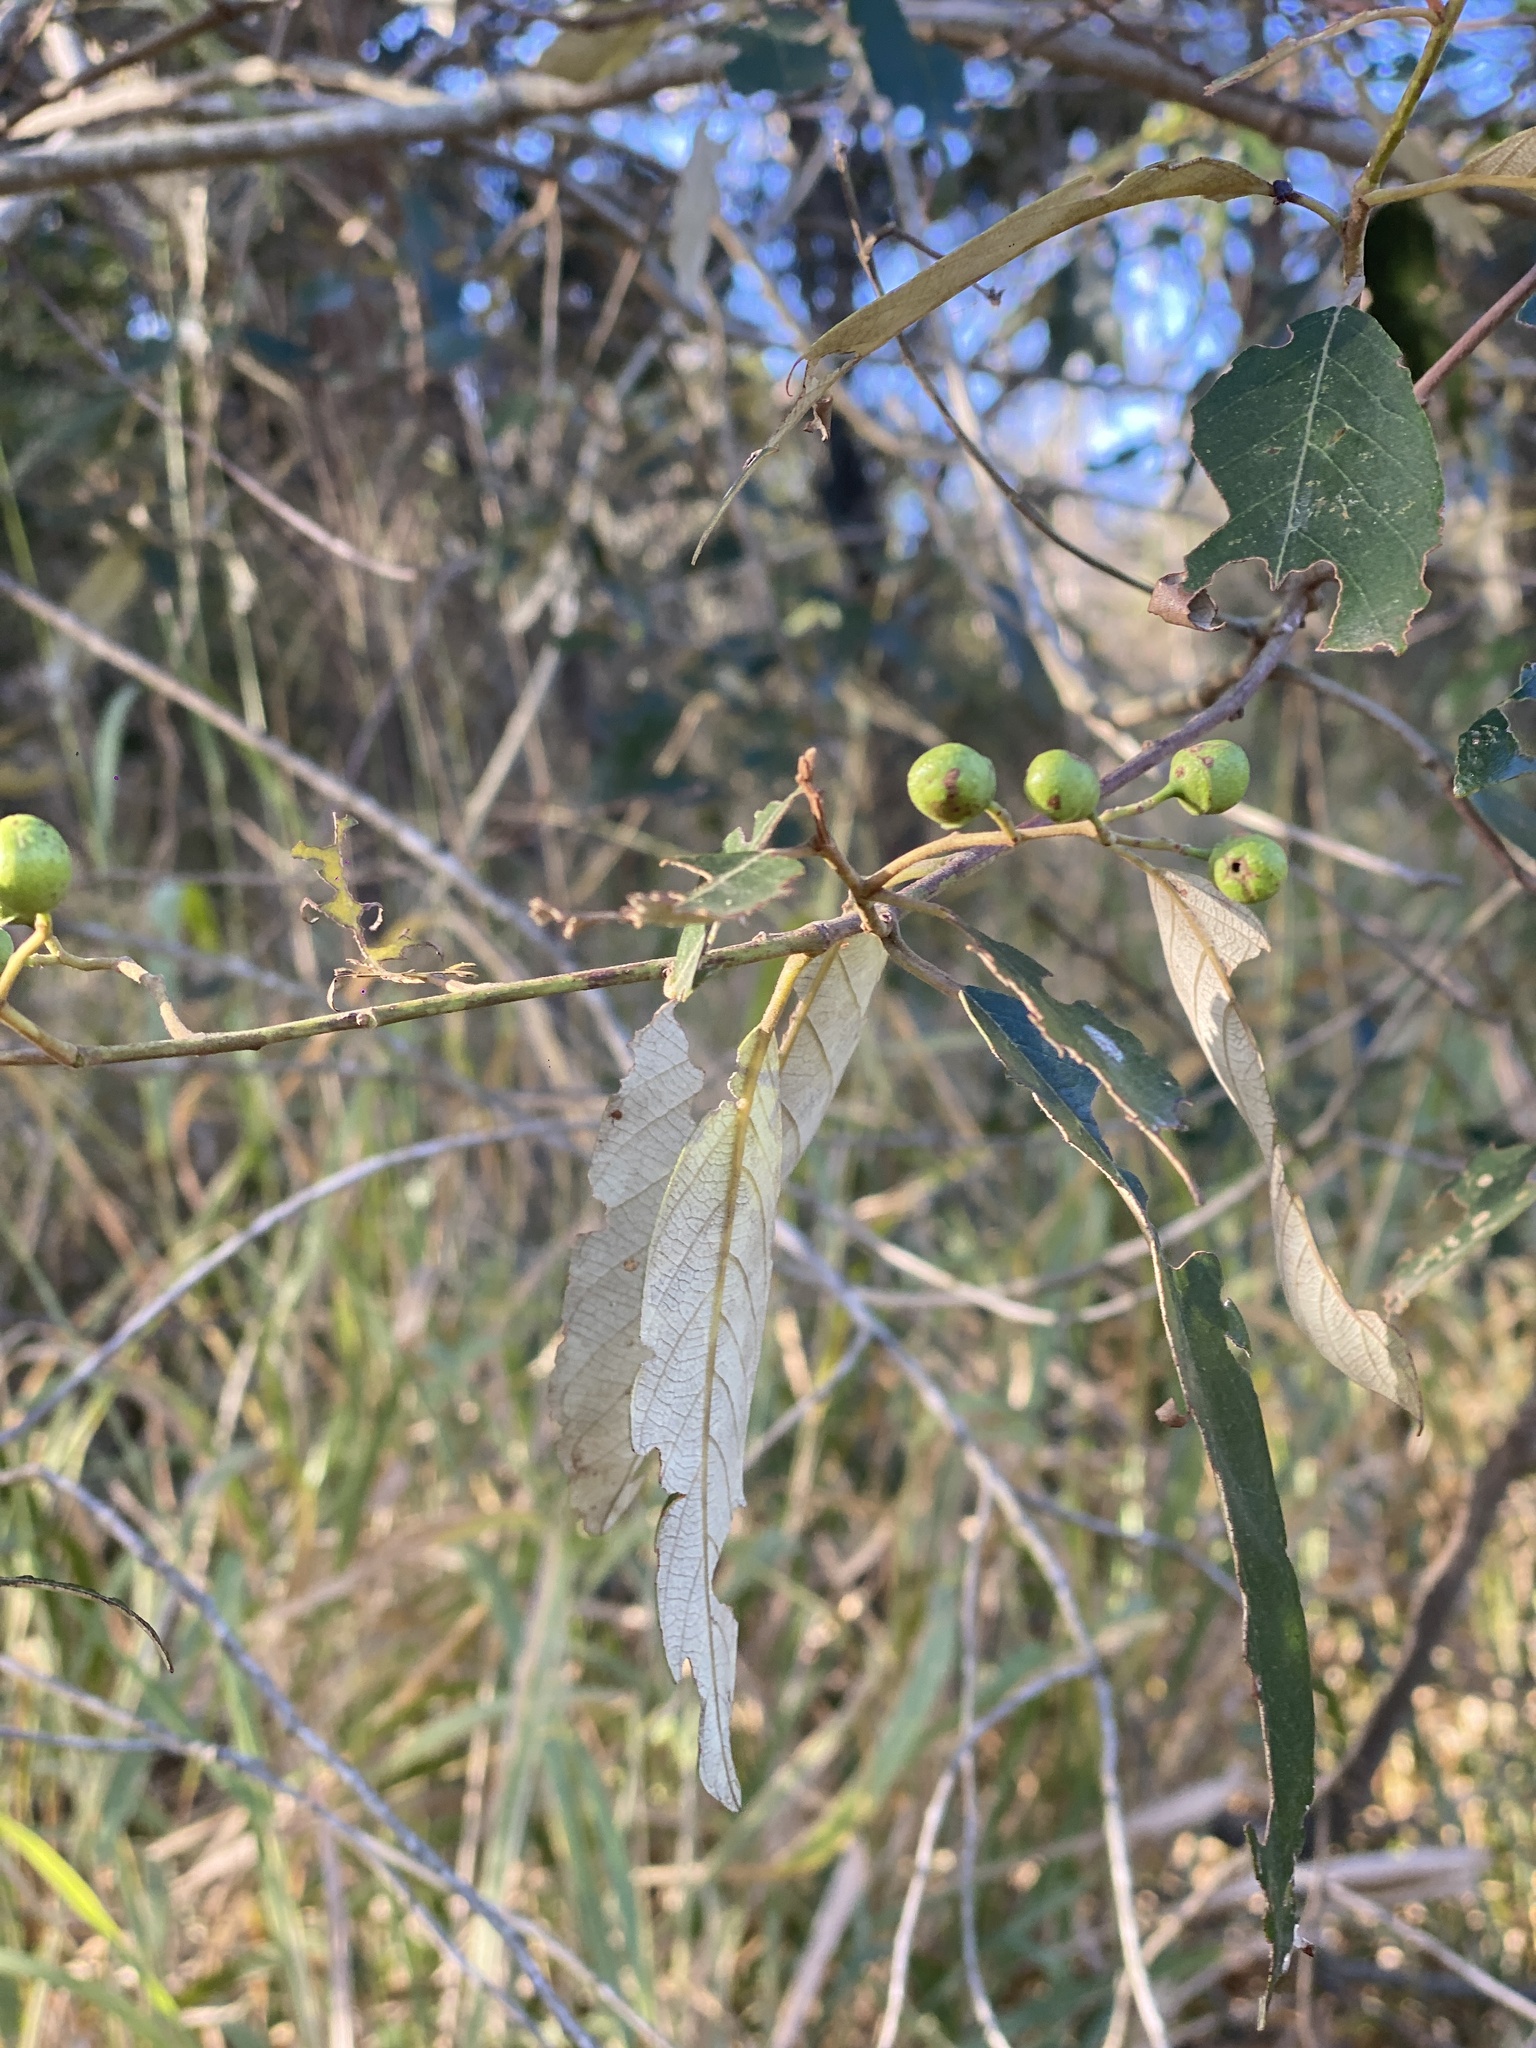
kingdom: Plantae
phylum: Tracheophyta
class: Magnoliopsida
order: Rosales
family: Rhamnaceae
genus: Alphitonia
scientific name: Alphitonia excelsa
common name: Red ash
